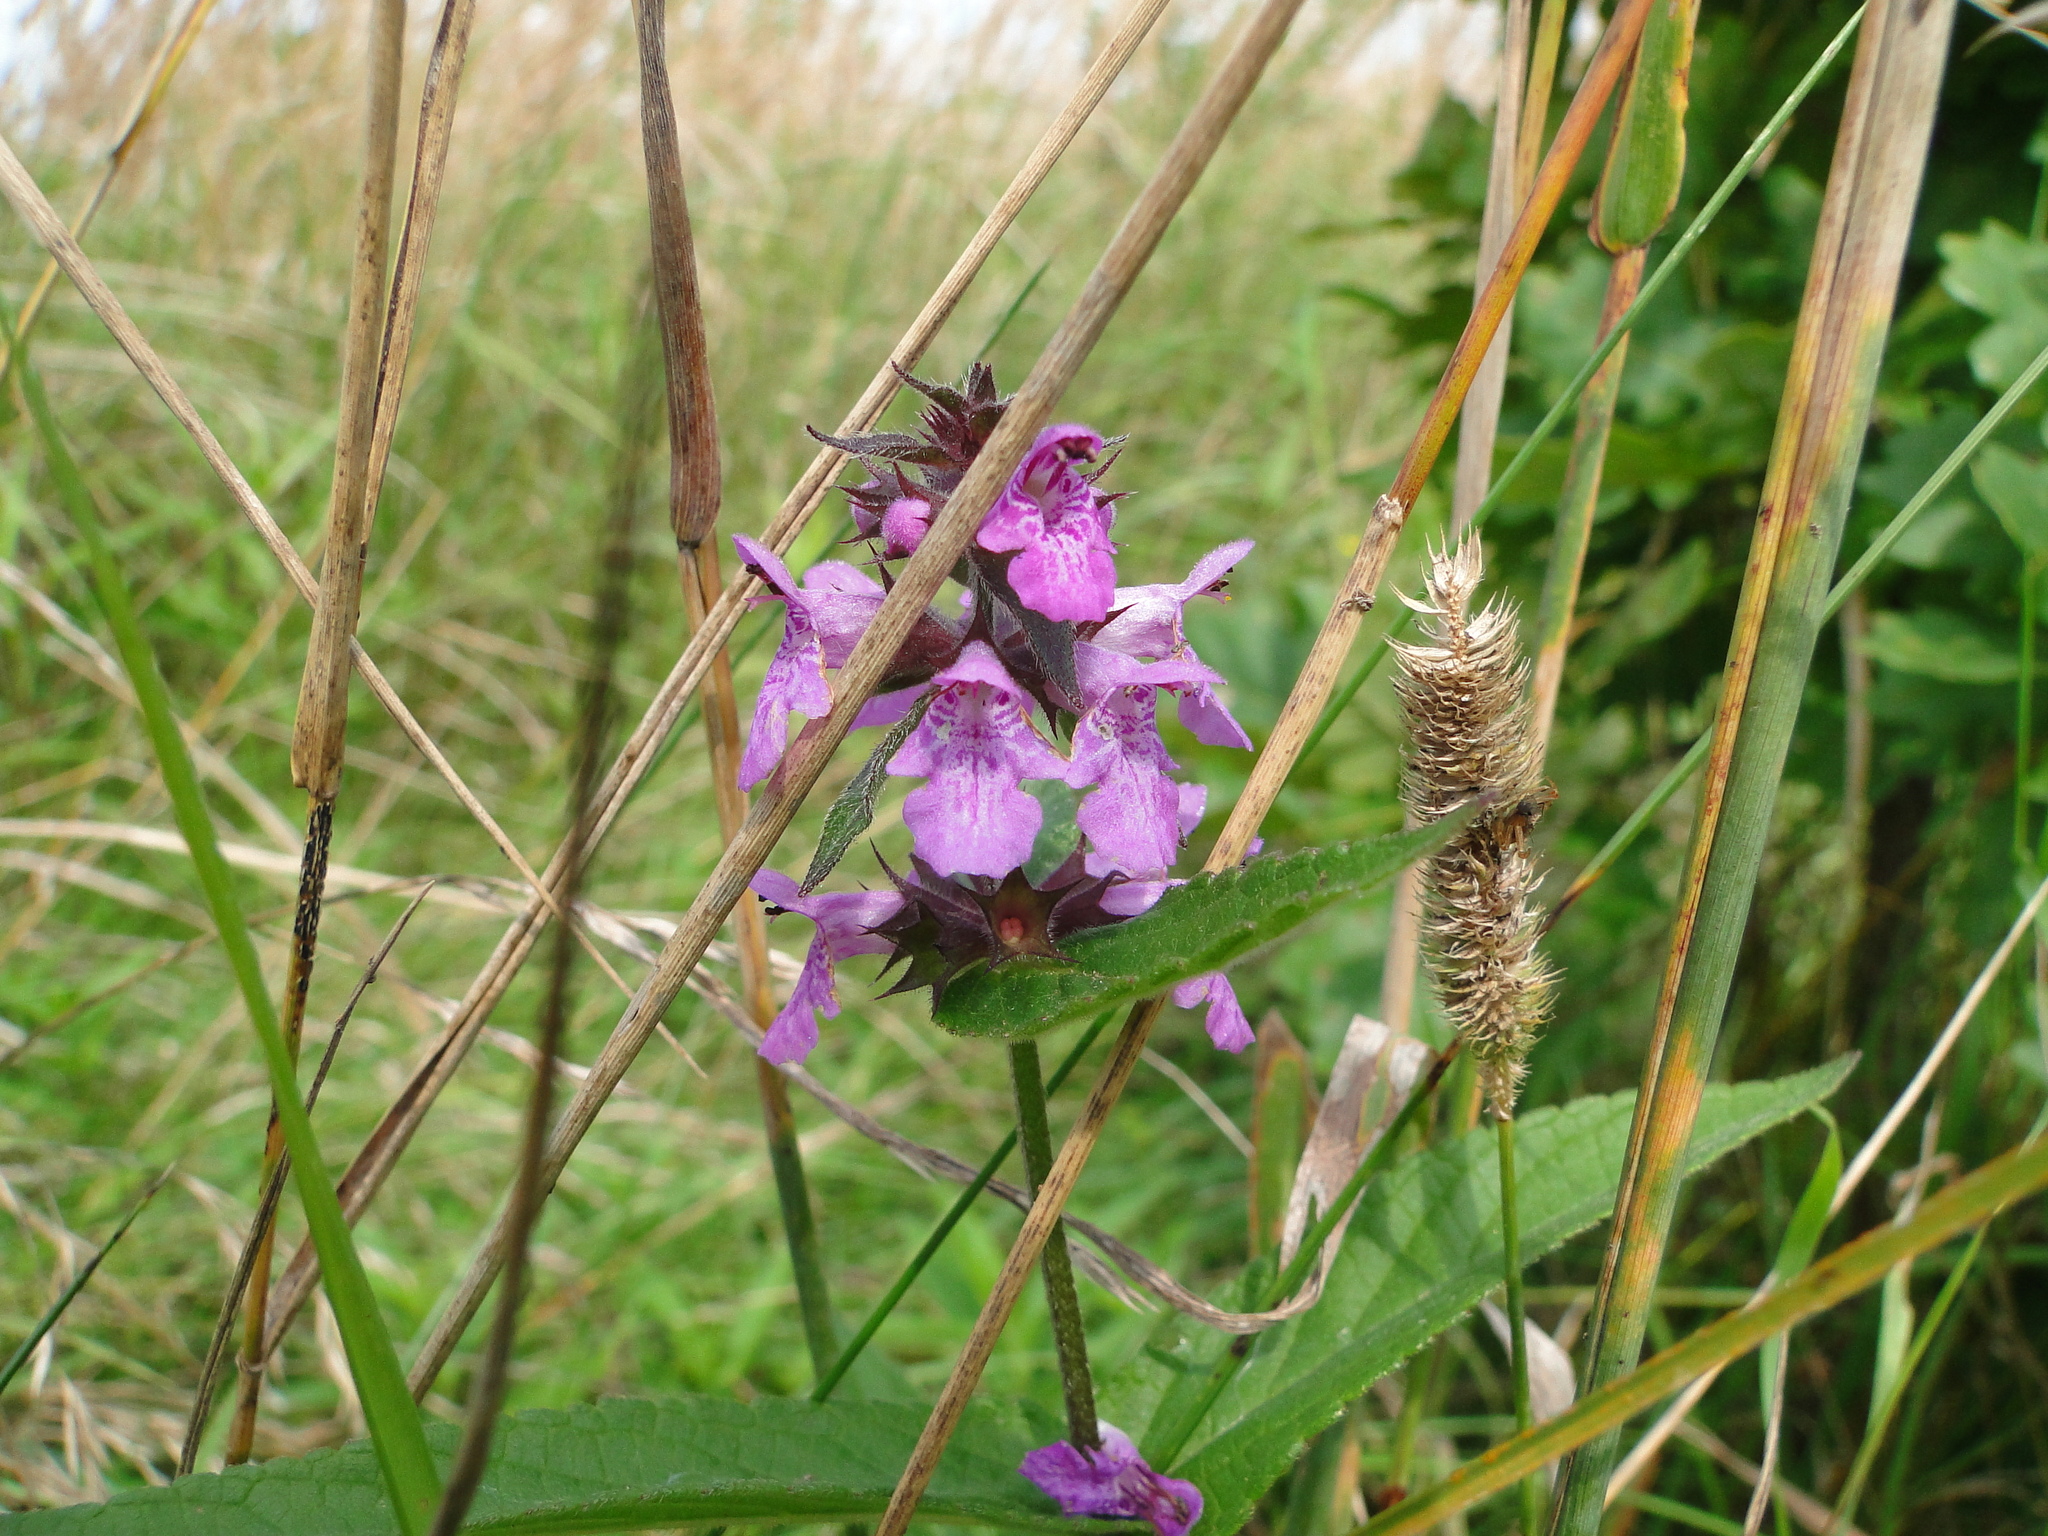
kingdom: Plantae
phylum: Tracheophyta
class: Magnoliopsida
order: Lamiales
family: Lamiaceae
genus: Stachys
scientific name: Stachys palustris
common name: Marsh woundwort
